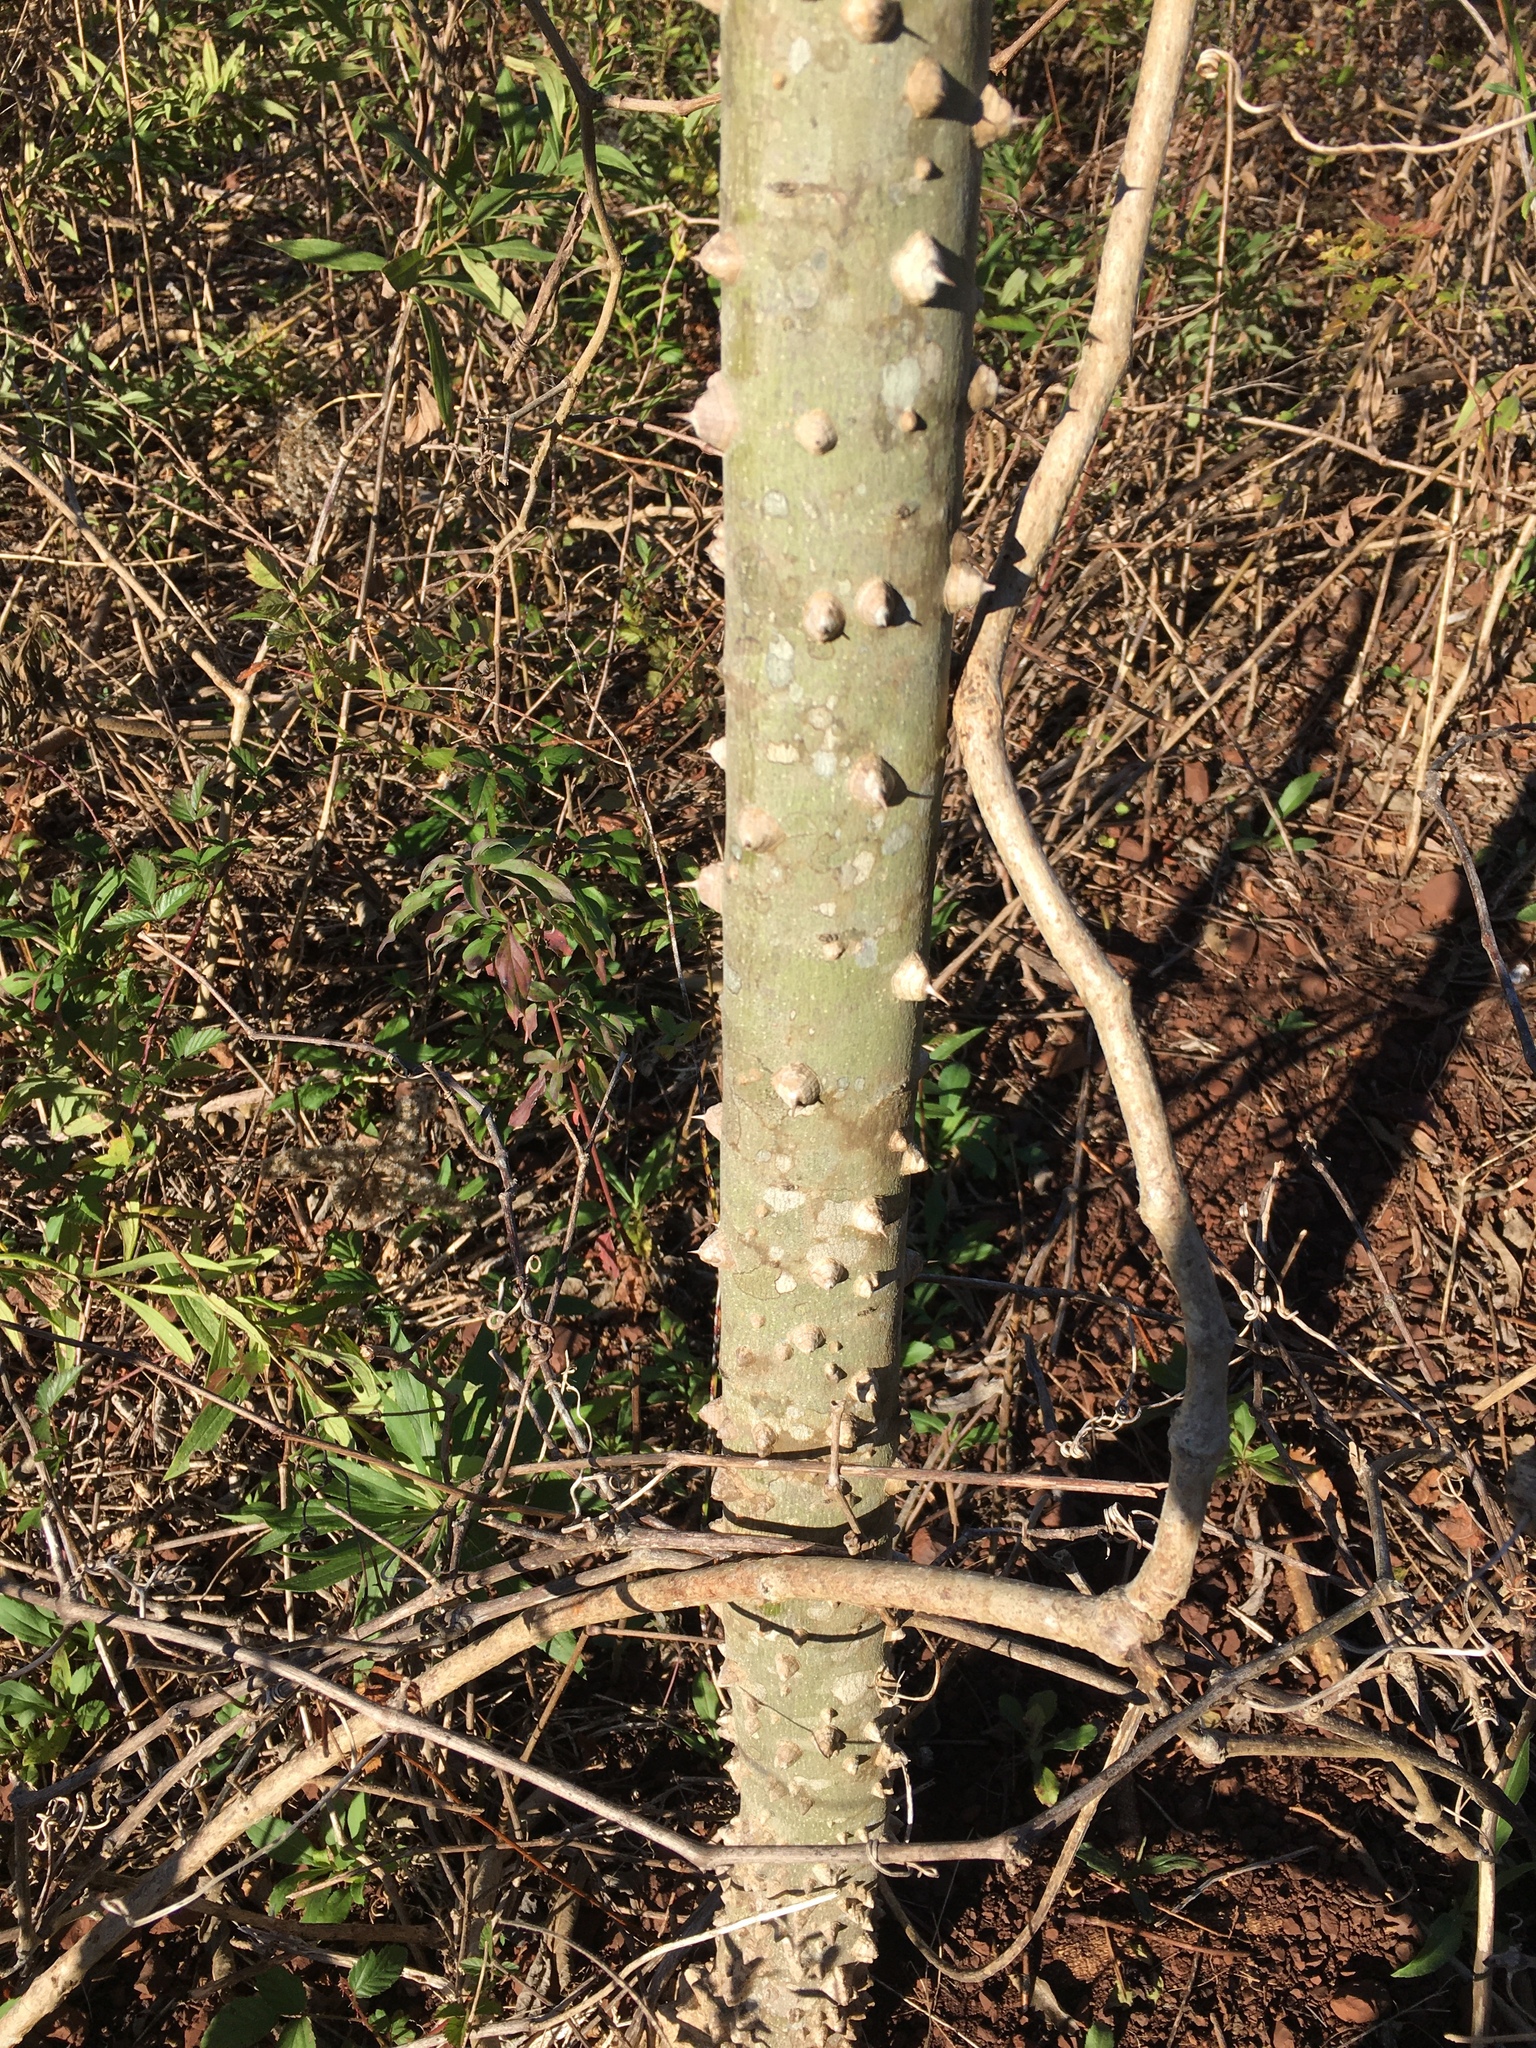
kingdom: Plantae
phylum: Tracheophyta
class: Magnoliopsida
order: Sapindales
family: Rutaceae
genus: Zanthoxylum
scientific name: Zanthoxylum clava-herculis
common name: Hercules'-club
